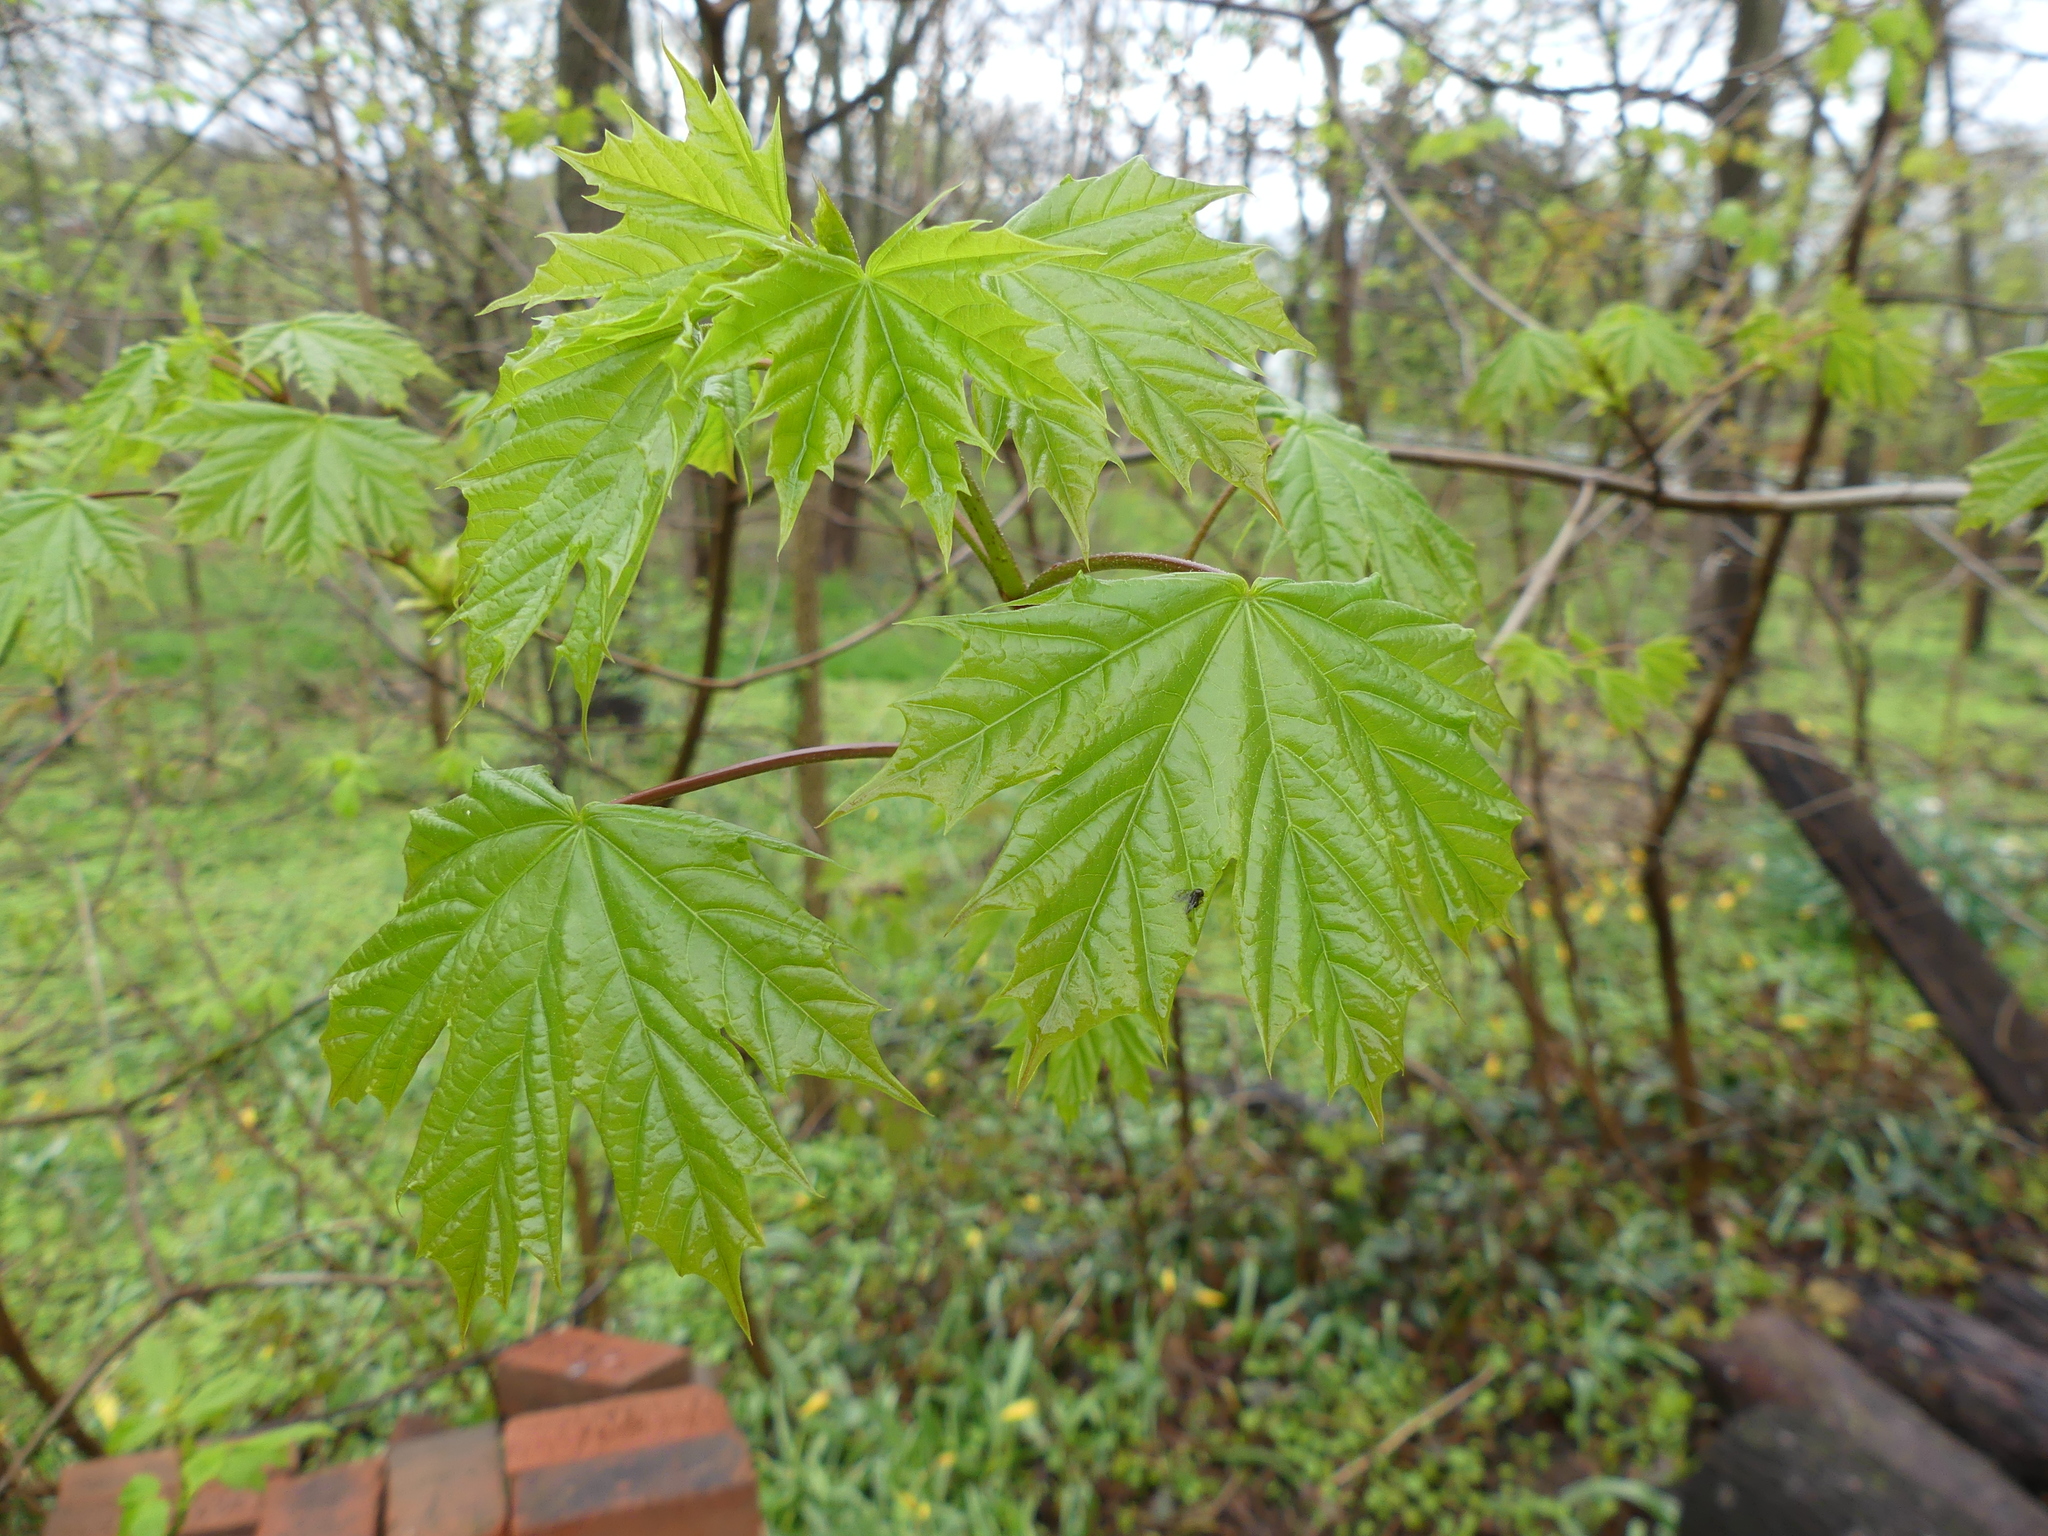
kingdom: Plantae
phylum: Tracheophyta
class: Magnoliopsida
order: Sapindales
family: Sapindaceae
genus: Acer
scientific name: Acer platanoides
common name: Norway maple
